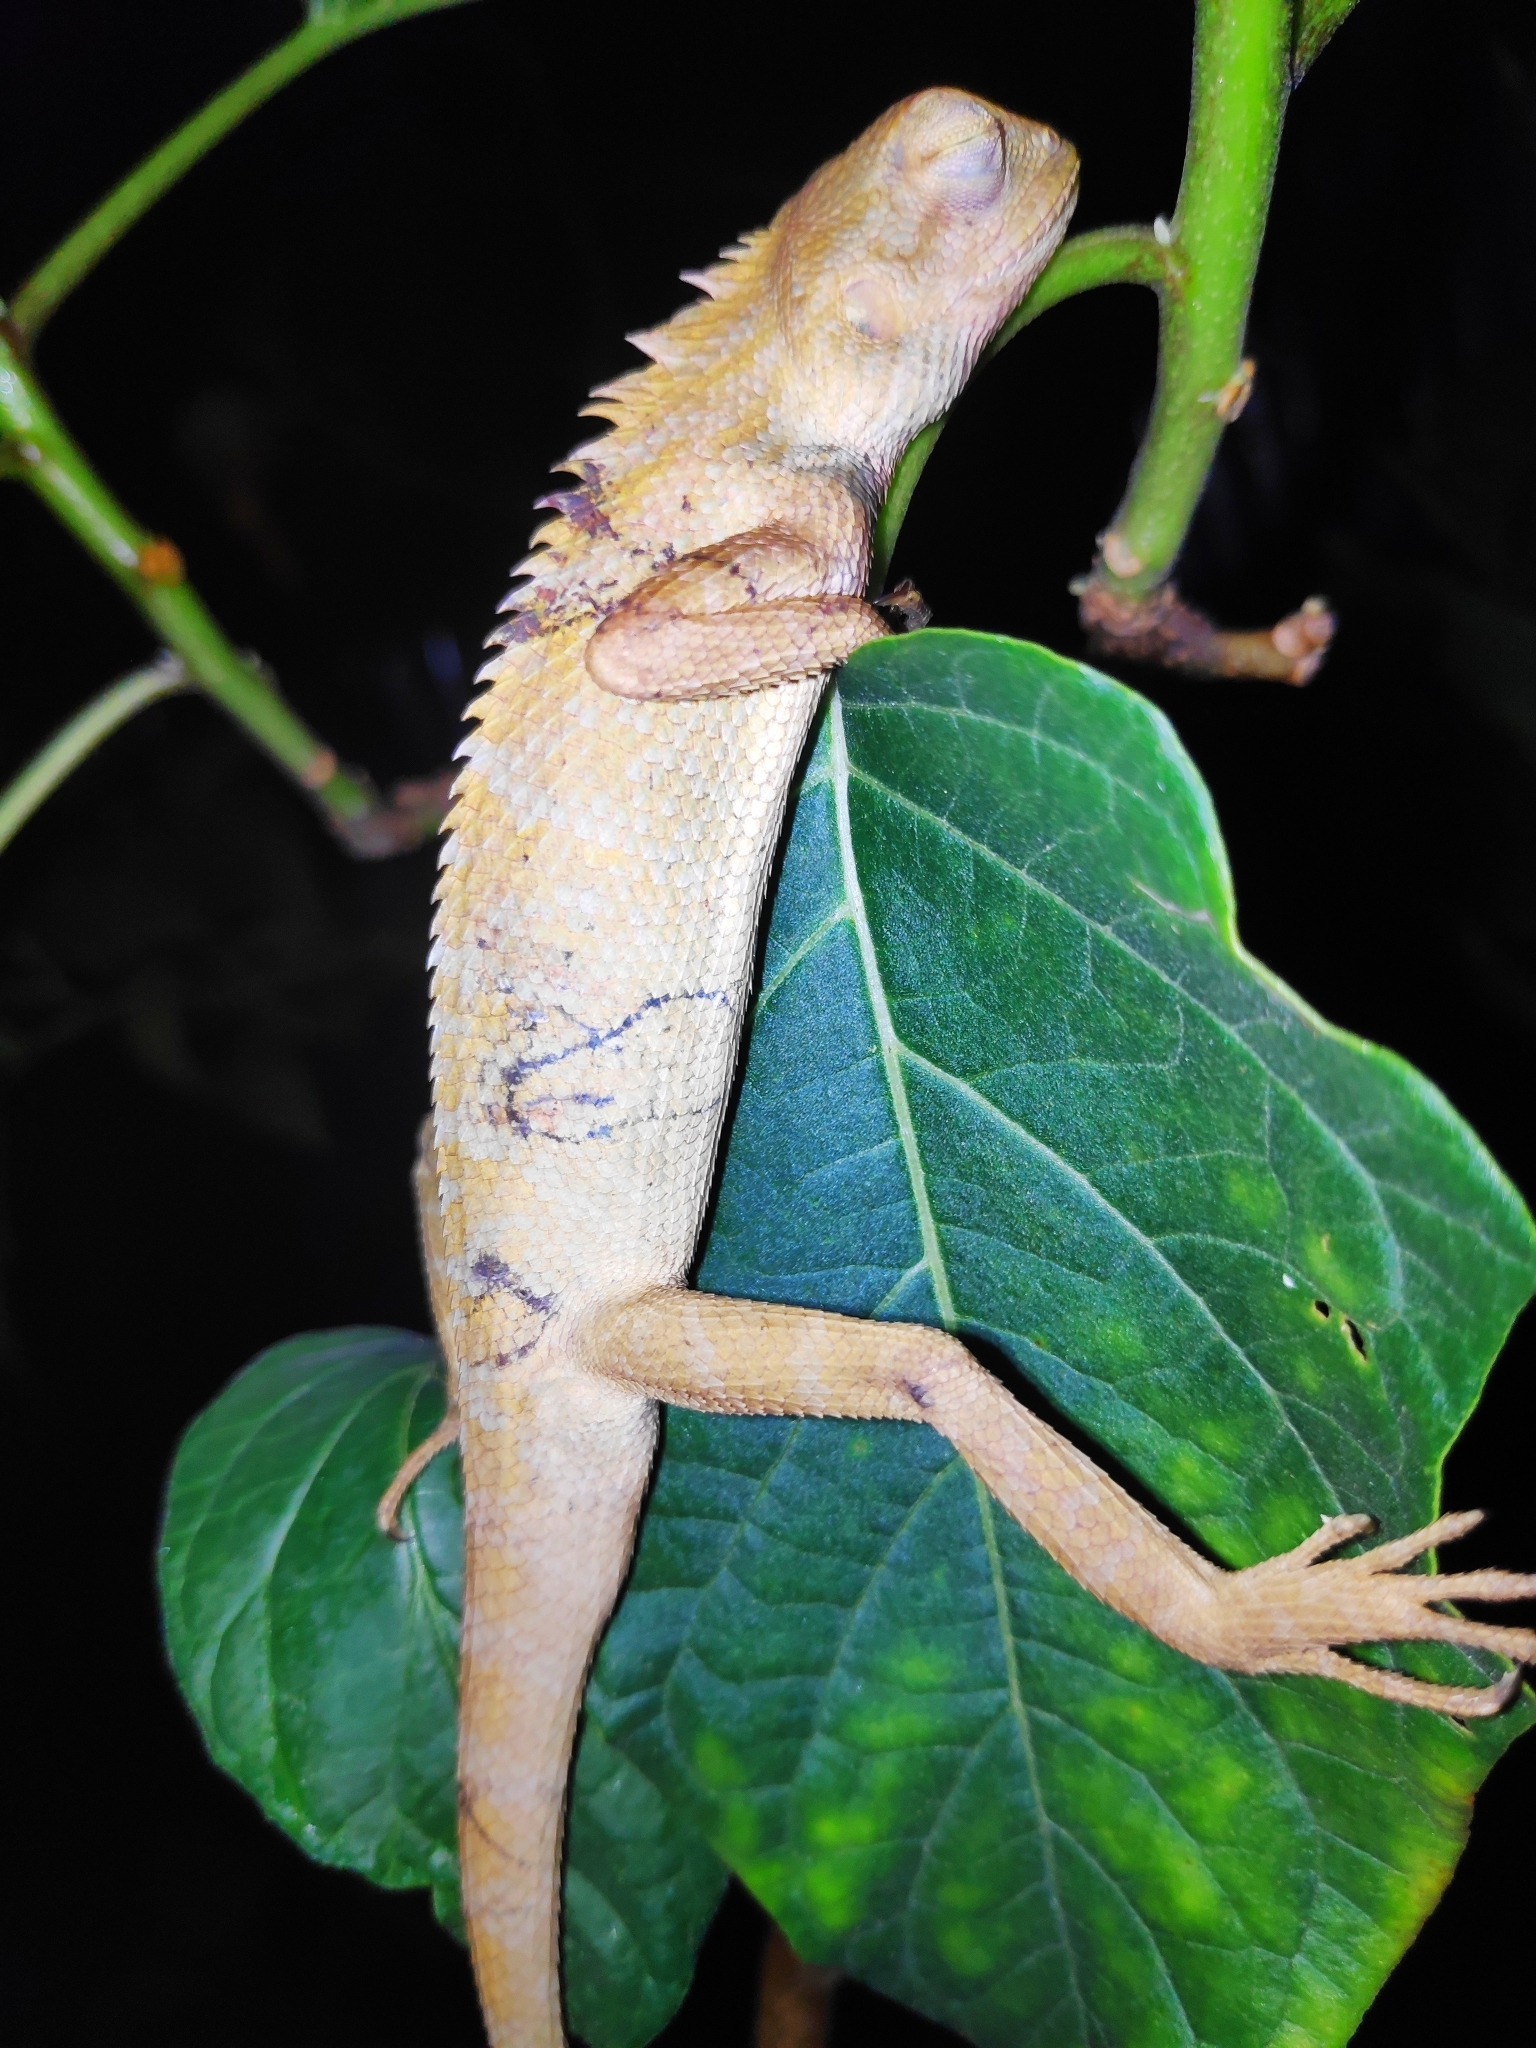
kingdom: Animalia
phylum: Chordata
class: Squamata
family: Agamidae
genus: Calotes
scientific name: Calotes versicolor
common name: Oriental garden lizard
